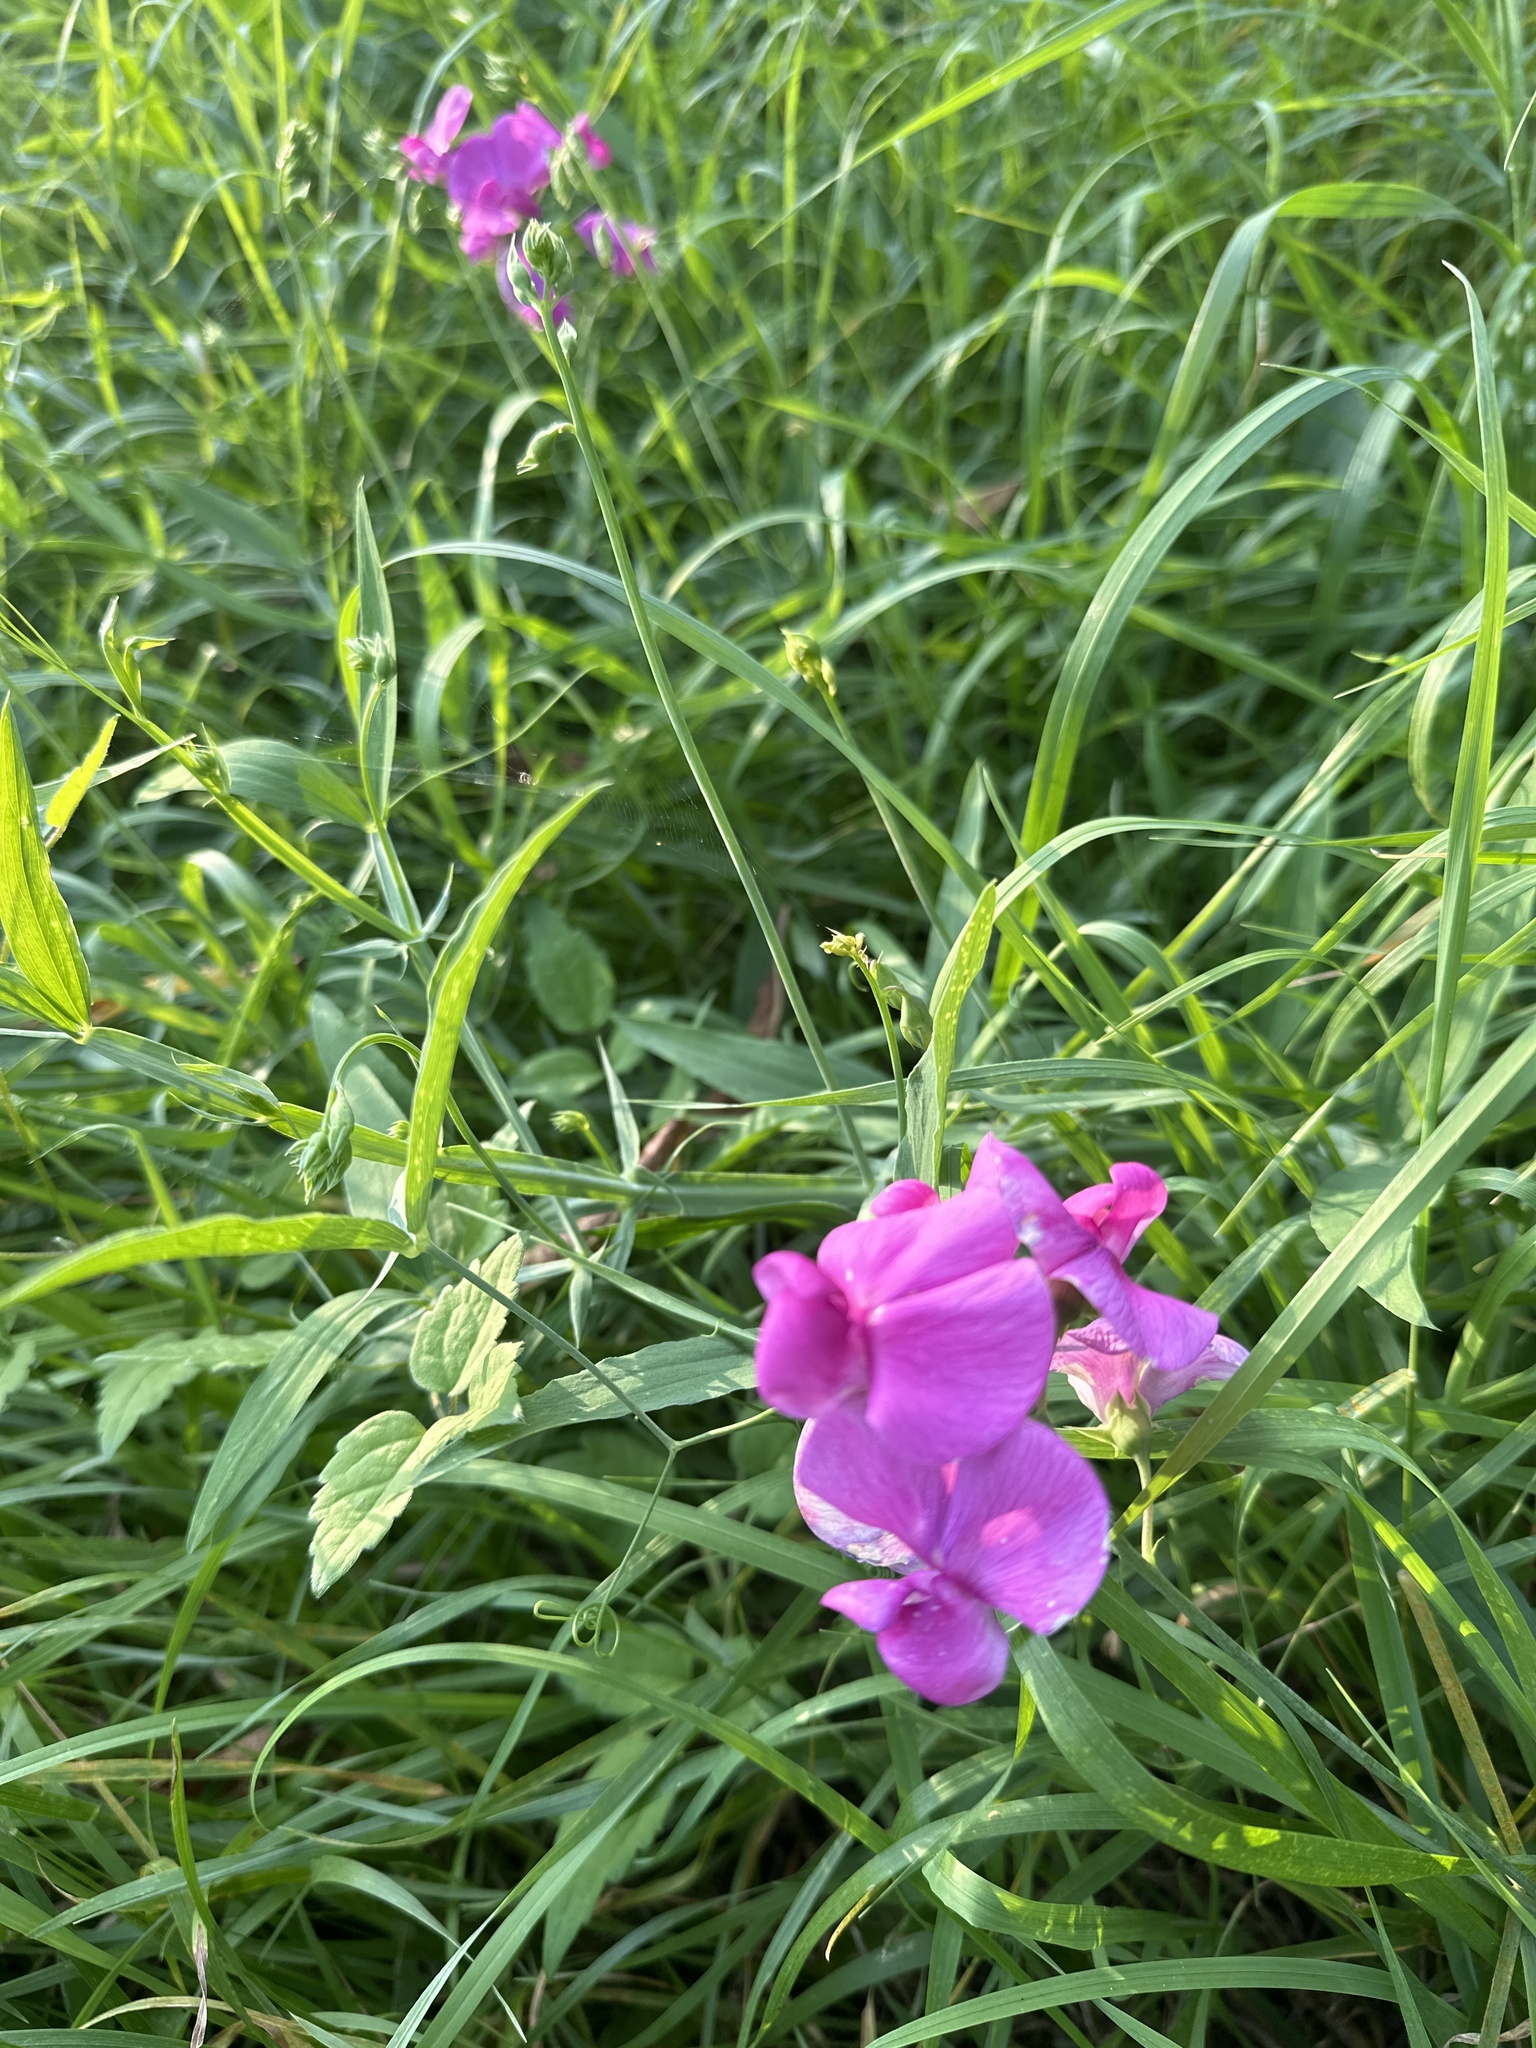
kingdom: Plantae
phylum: Tracheophyta
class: Magnoliopsida
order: Fabales
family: Fabaceae
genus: Lathyrus
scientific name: Lathyrus latifolius
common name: Perennial pea
